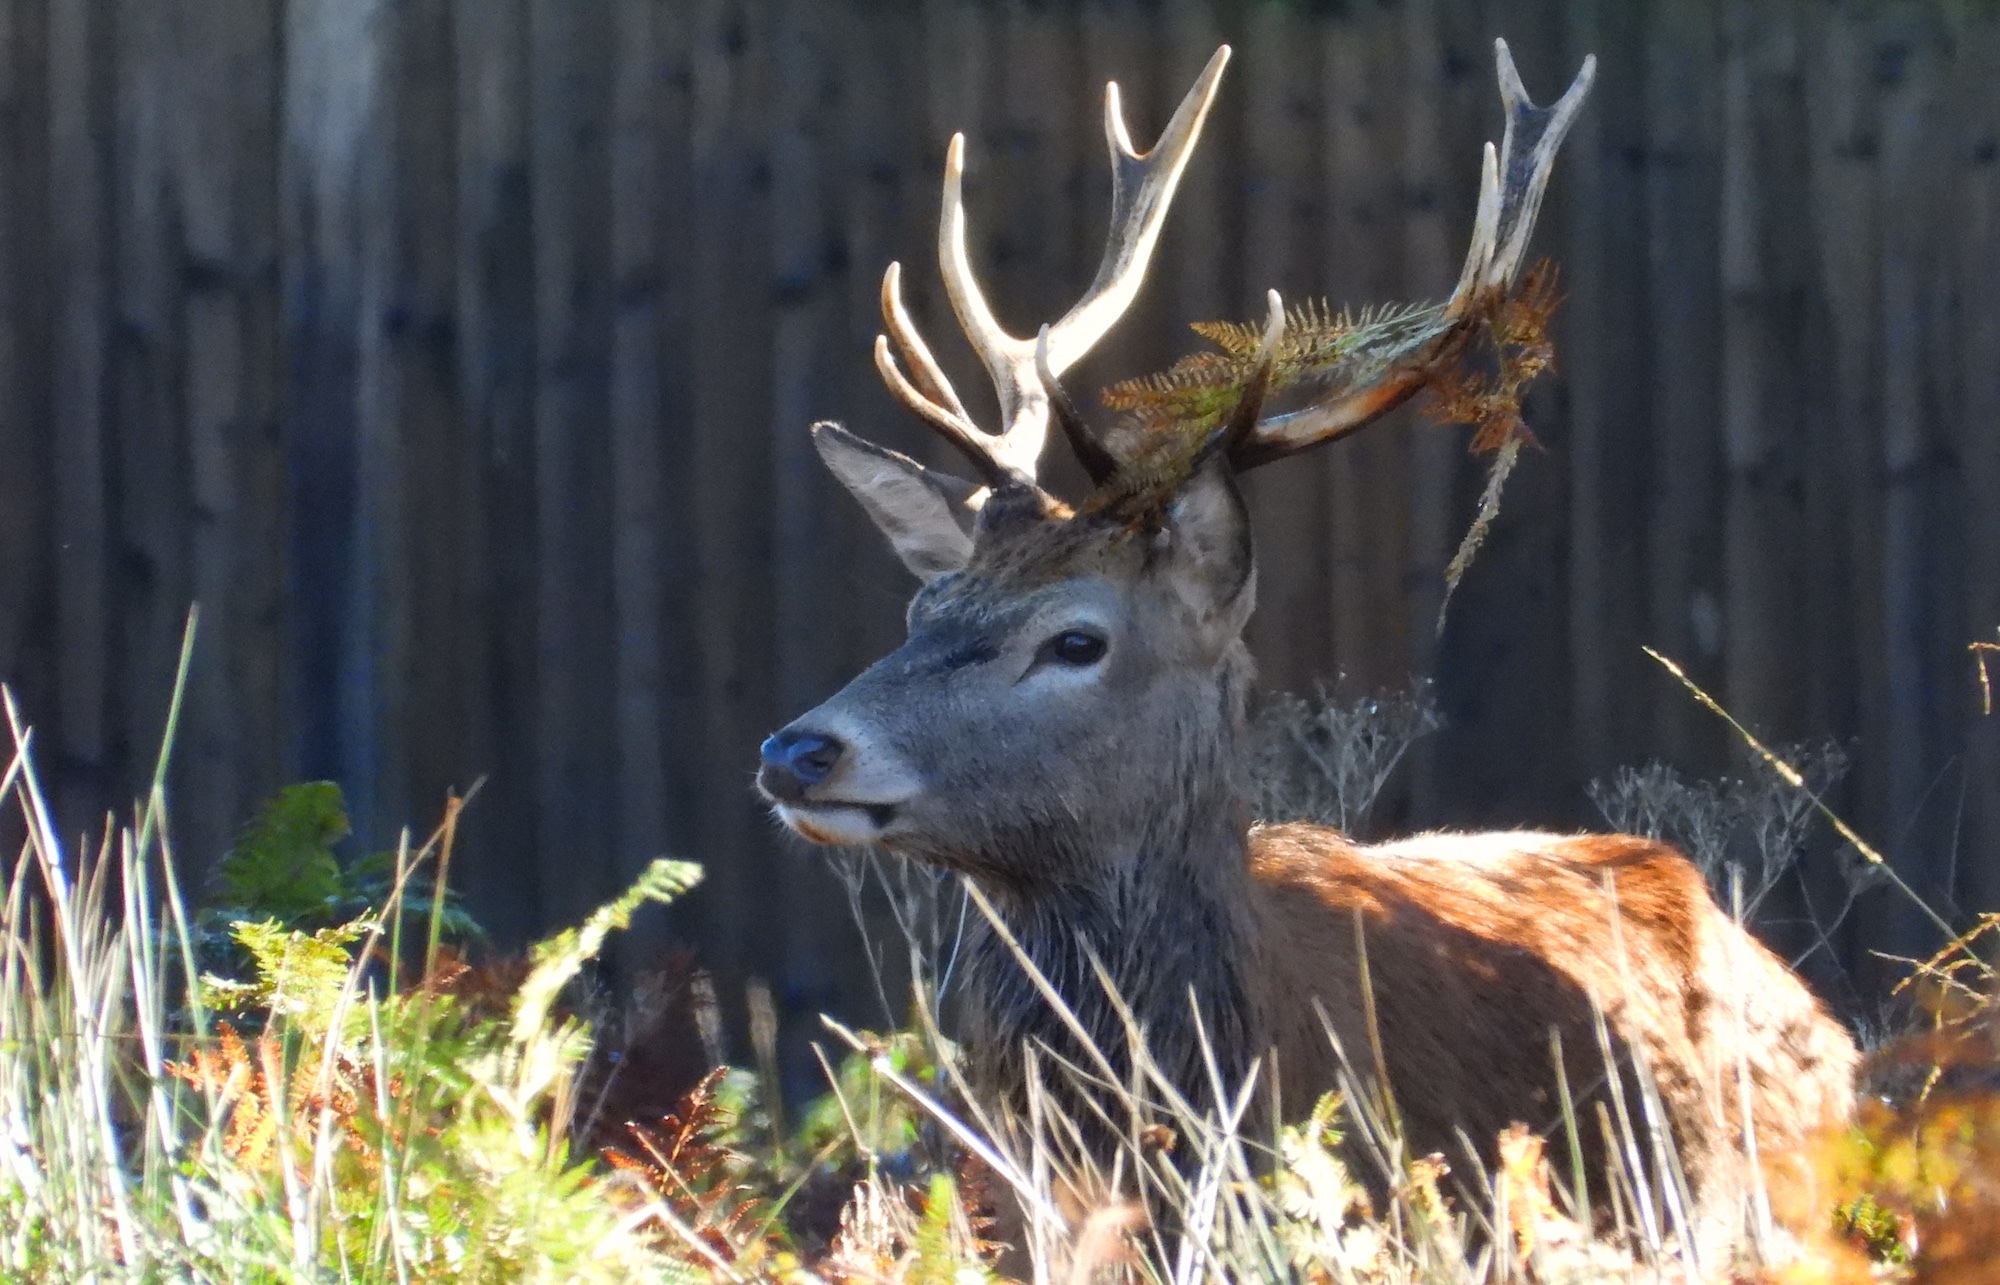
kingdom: Animalia
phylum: Chordata
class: Mammalia
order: Artiodactyla
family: Cervidae
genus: Cervus
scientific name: Cervus elaphus
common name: Red deer
